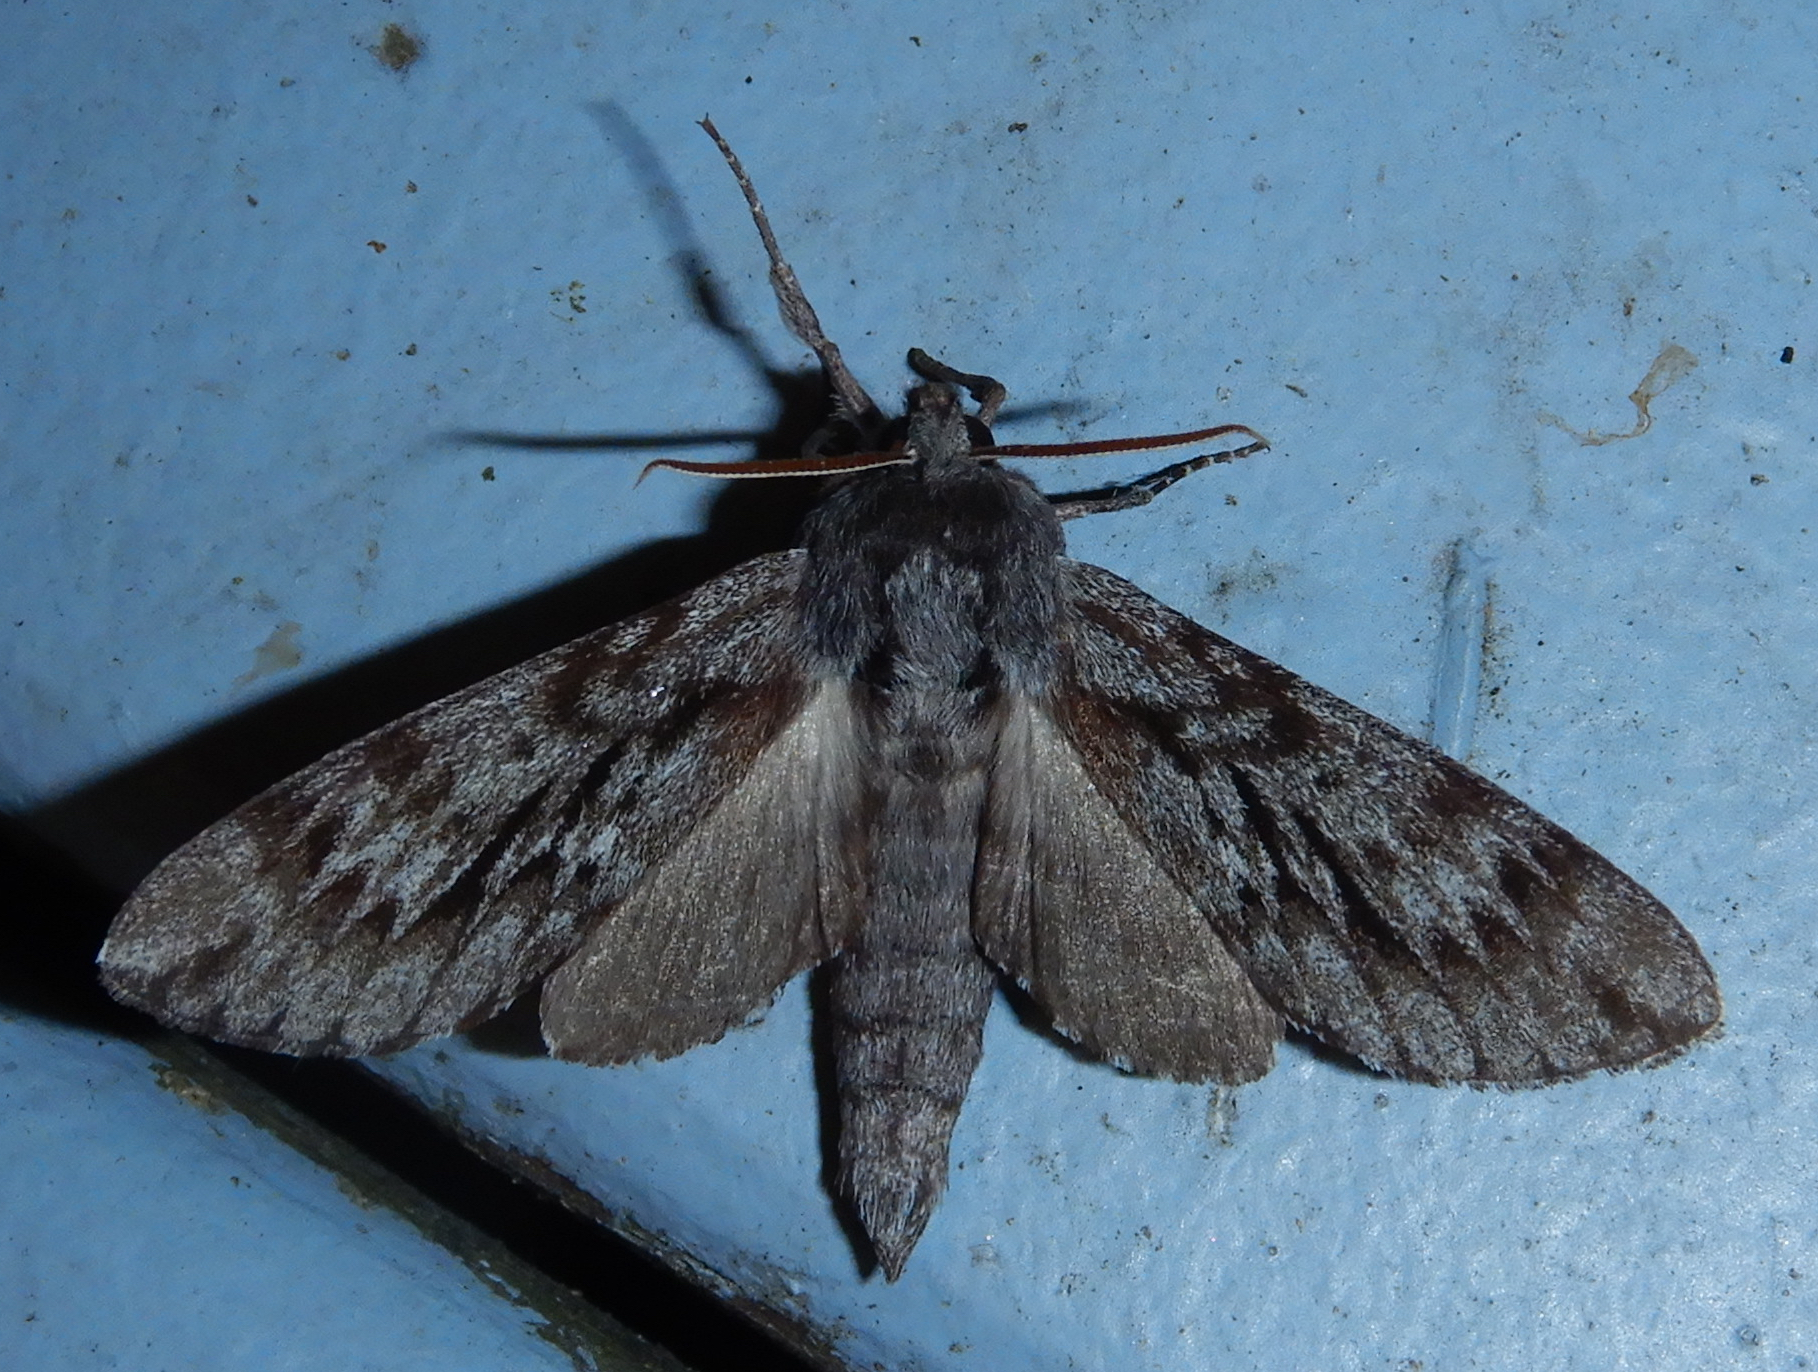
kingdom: Animalia
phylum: Arthropoda
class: Insecta
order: Lepidoptera
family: Sphingidae
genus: Lapara
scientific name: Lapara bombycoides
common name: Northern pine sphinx
